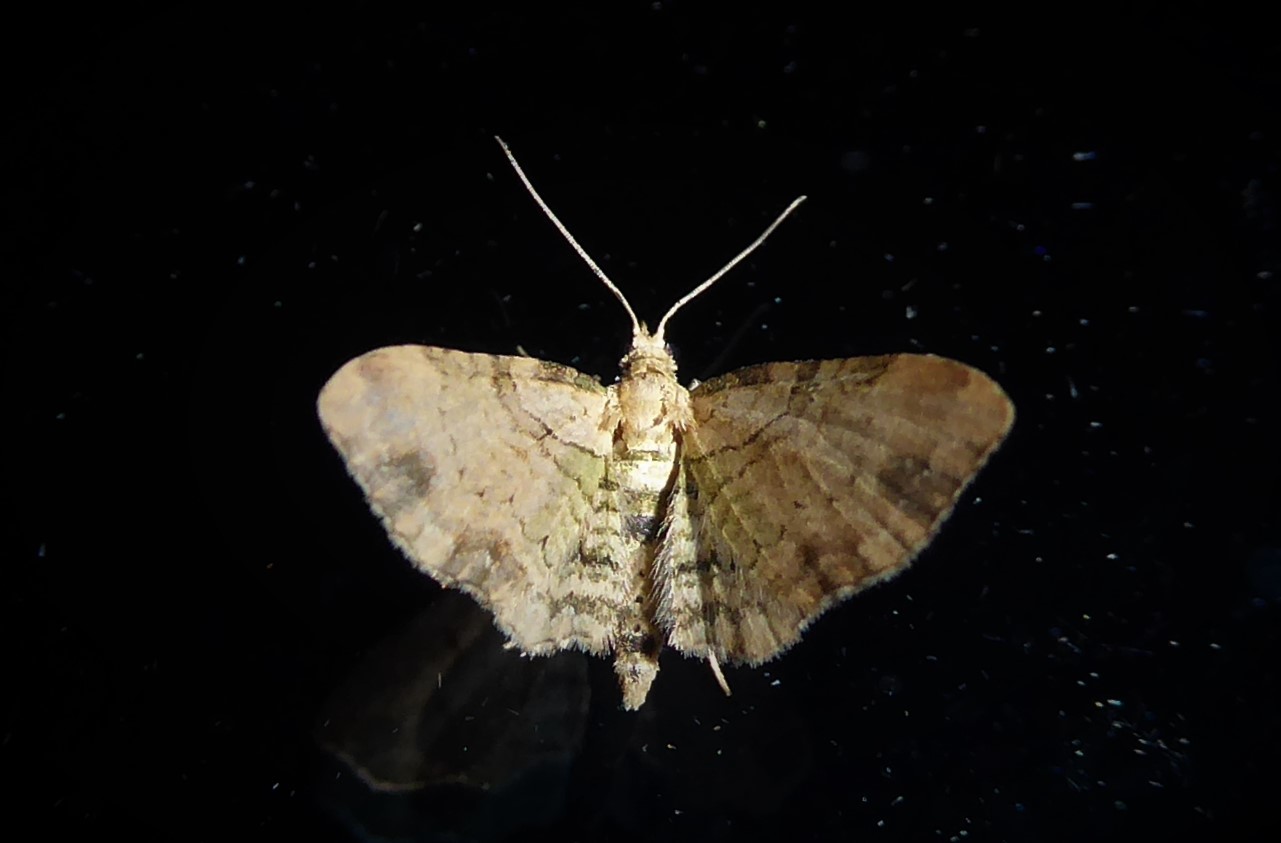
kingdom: Animalia
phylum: Arthropoda
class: Insecta
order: Lepidoptera
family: Geometridae
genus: Chloroclystis
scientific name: Chloroclystis
